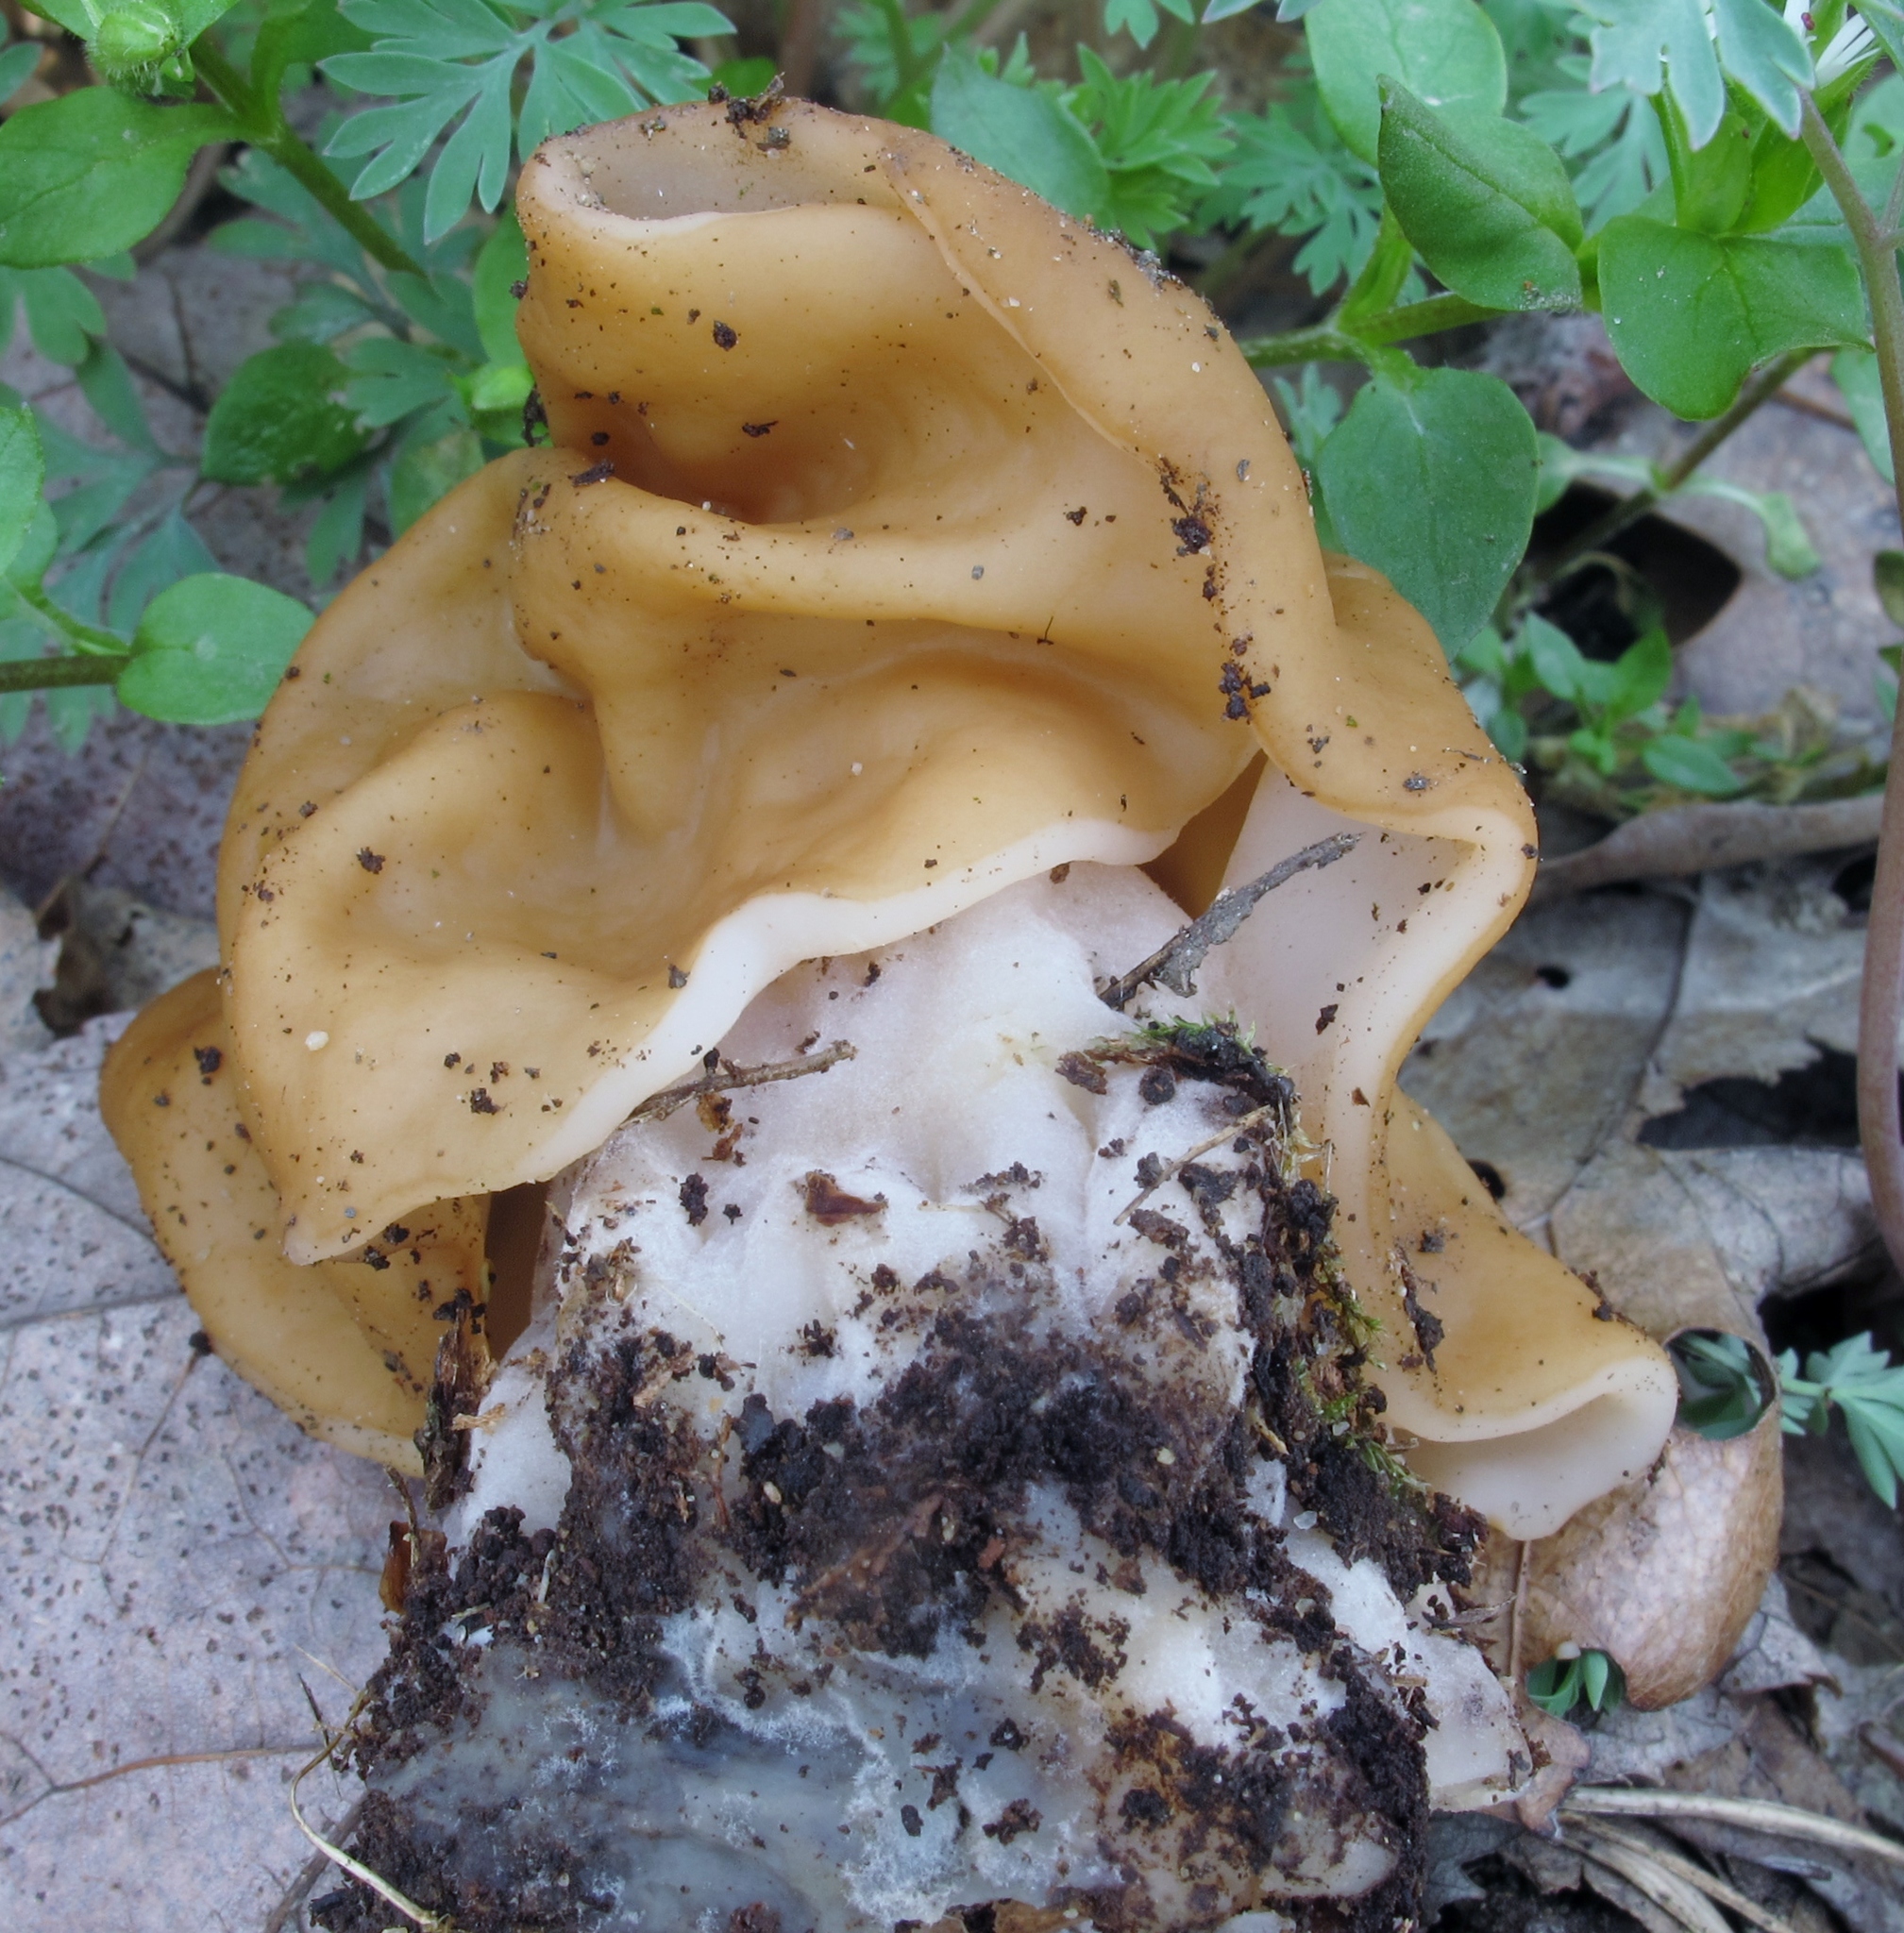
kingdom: Fungi
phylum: Ascomycota
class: Pezizomycetes
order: Pezizales
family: Discinaceae
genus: Gyromitra
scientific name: Gyromitra korfii
